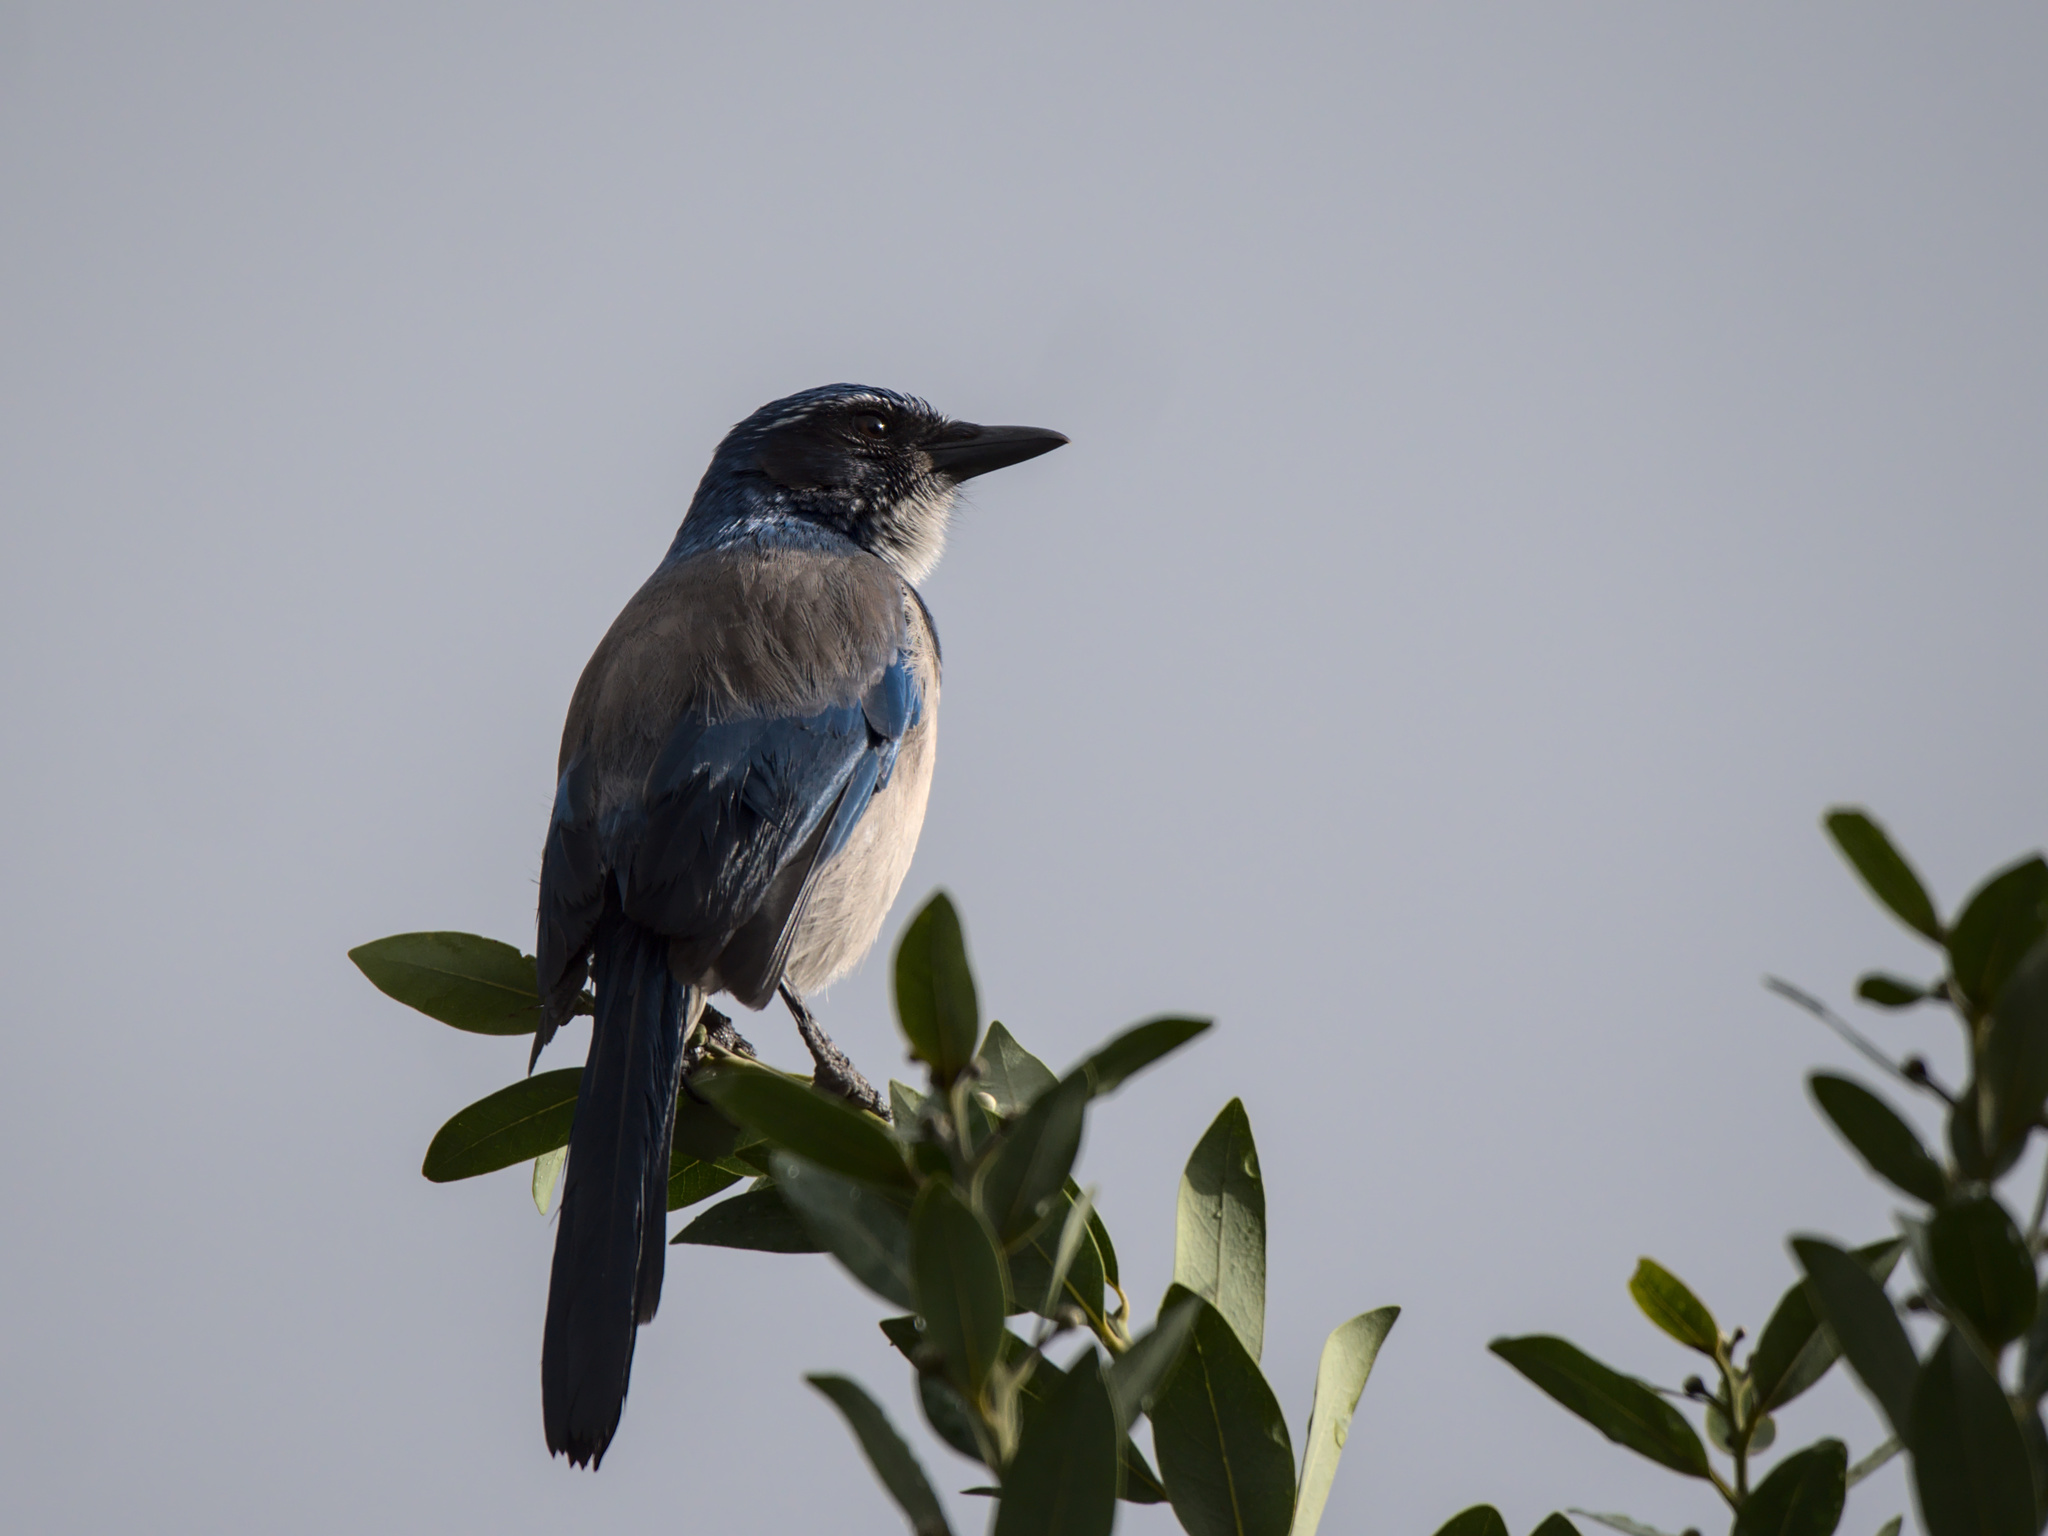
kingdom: Animalia
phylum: Chordata
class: Aves
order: Passeriformes
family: Corvidae
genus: Aphelocoma
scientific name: Aphelocoma californica
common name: California scrub-jay
